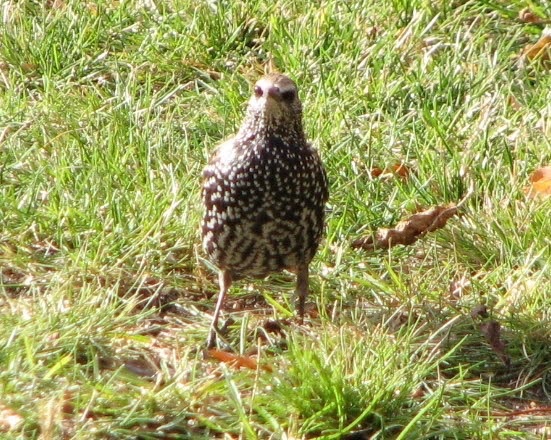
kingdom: Animalia
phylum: Chordata
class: Aves
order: Passeriformes
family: Sturnidae
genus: Sturnus
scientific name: Sturnus vulgaris
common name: Common starling
